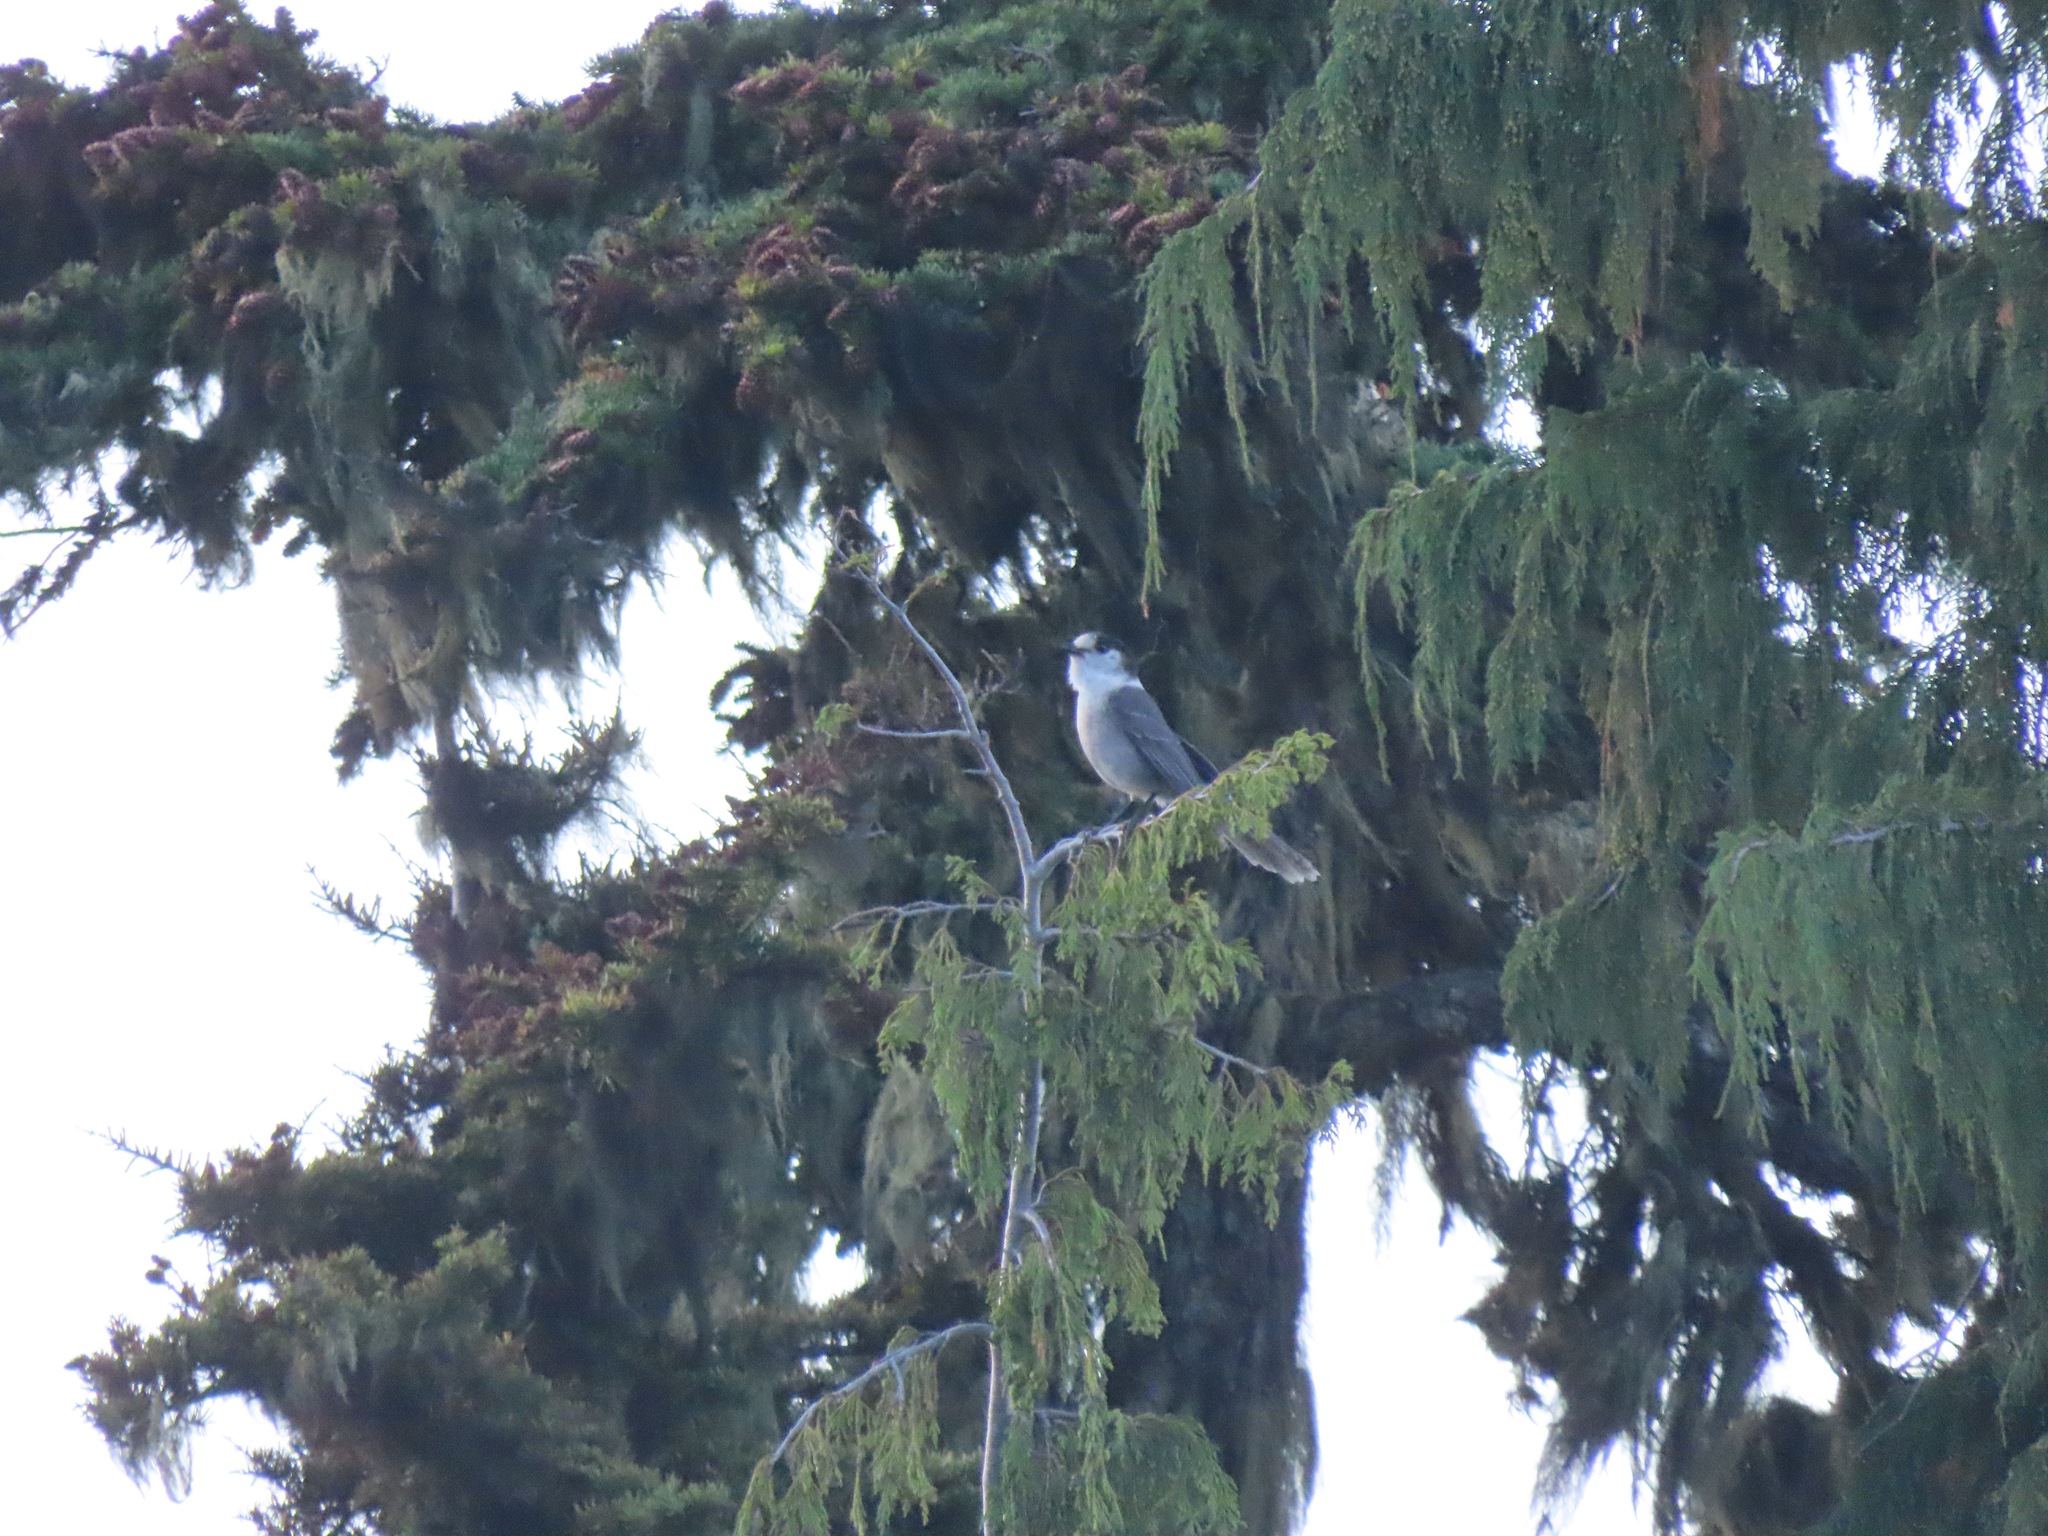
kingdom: Animalia
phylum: Chordata
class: Aves
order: Passeriformes
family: Corvidae
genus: Perisoreus
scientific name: Perisoreus canadensis
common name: Gray jay
